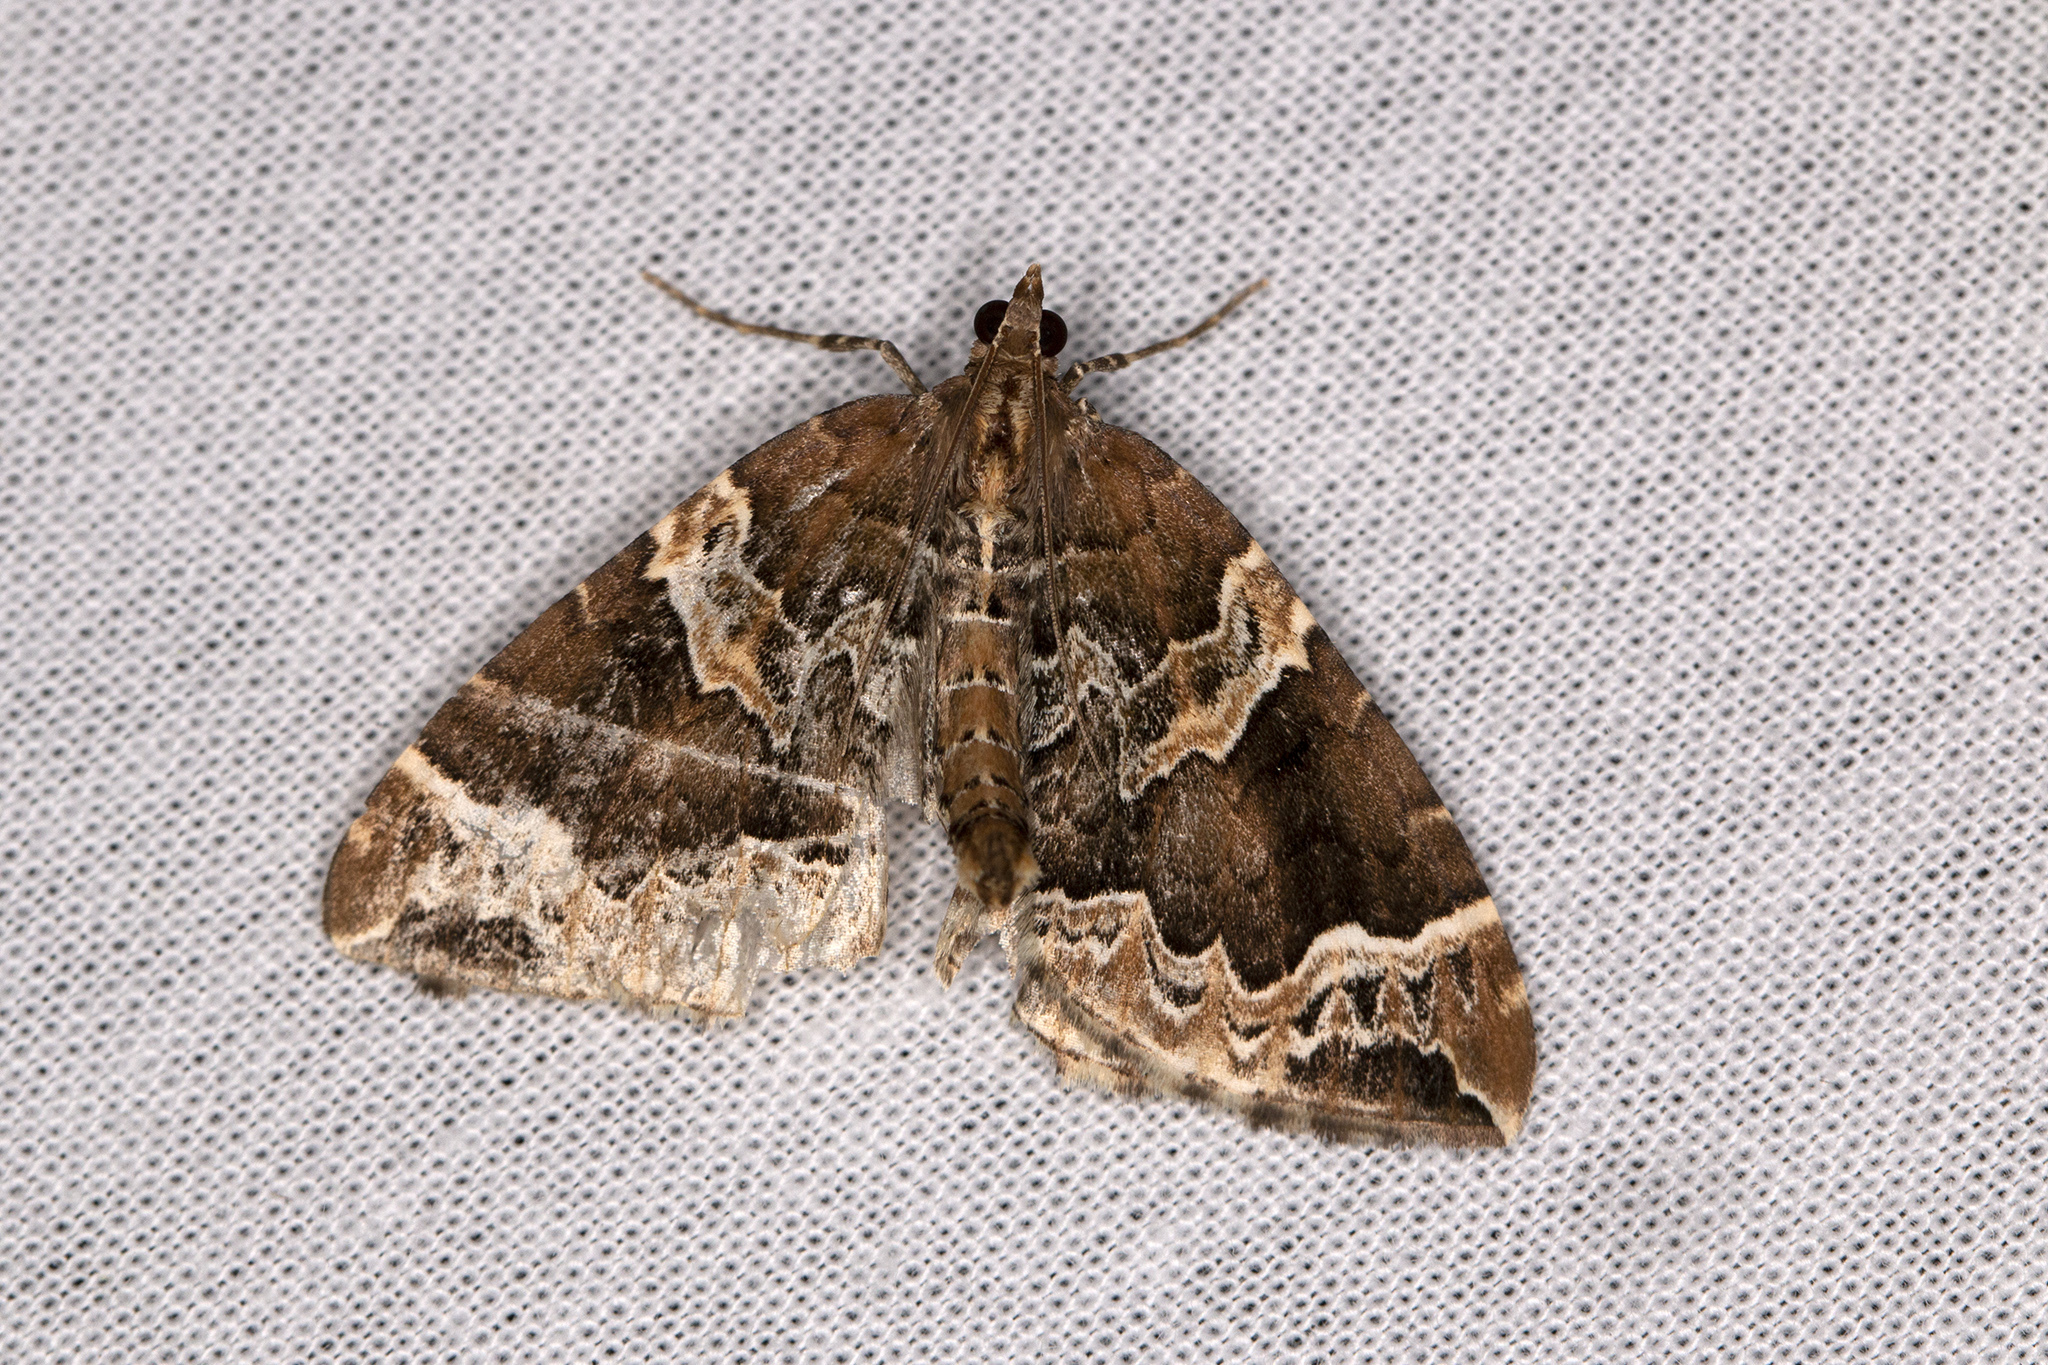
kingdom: Animalia
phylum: Arthropoda
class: Insecta
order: Lepidoptera
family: Geometridae
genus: Eulithis
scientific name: Eulithis prunata
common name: Phoenix
